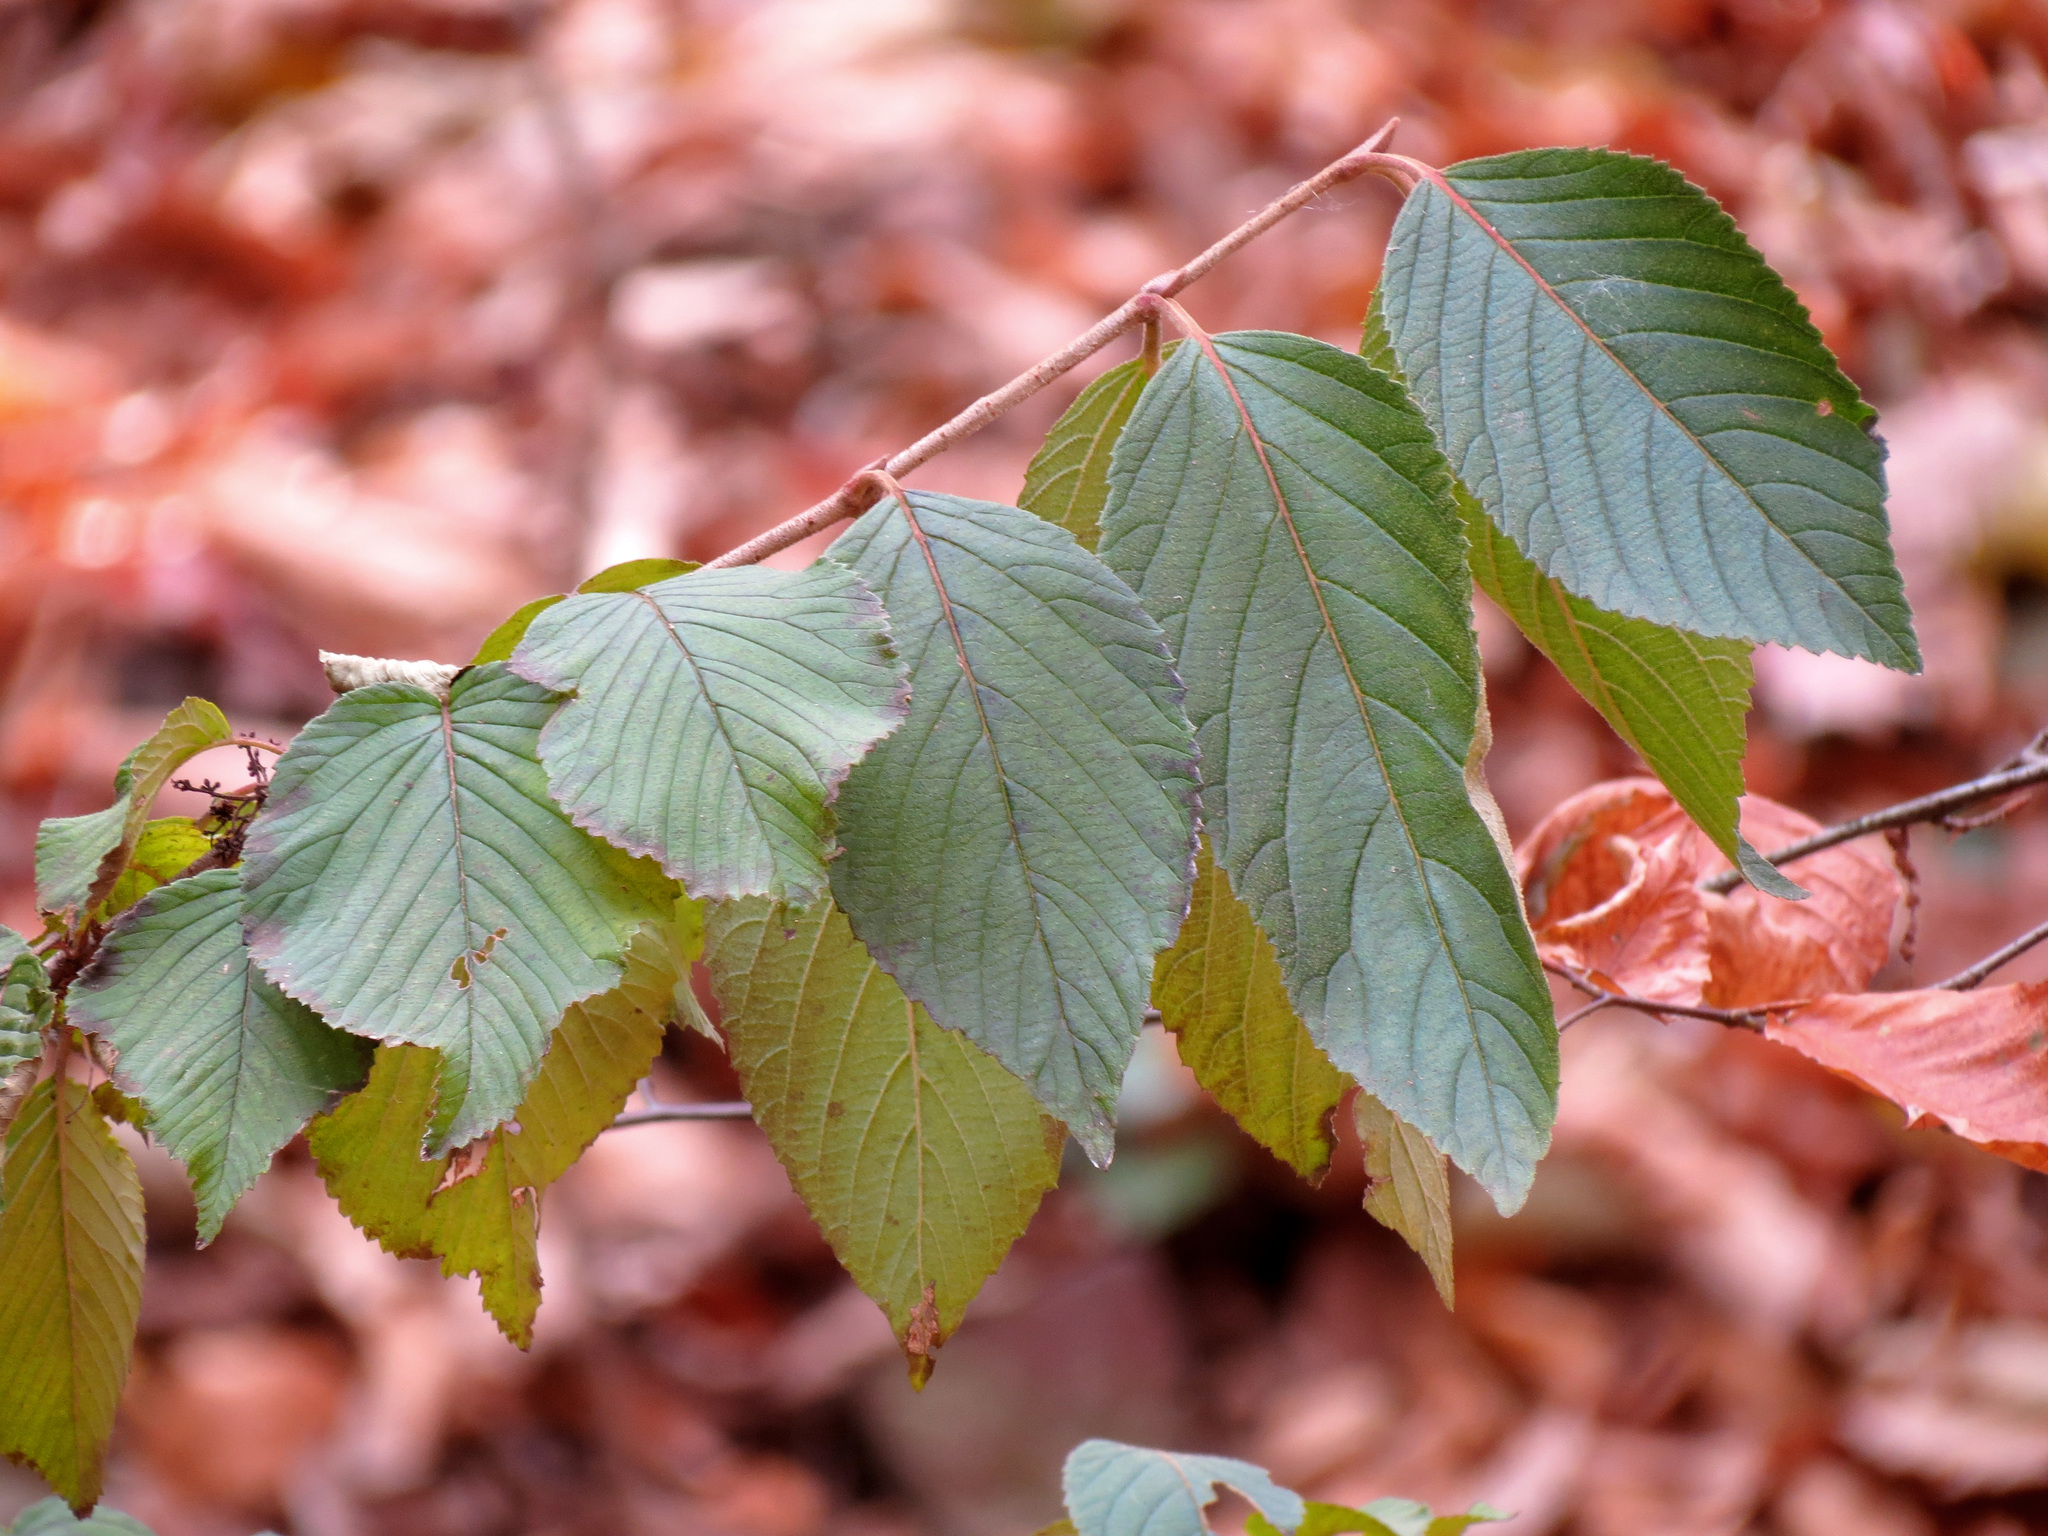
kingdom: Plantae
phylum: Tracheophyta
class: Magnoliopsida
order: Dipsacales
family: Viburnaceae
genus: Viburnum
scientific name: Viburnum plicatum
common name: Japanese snowball
